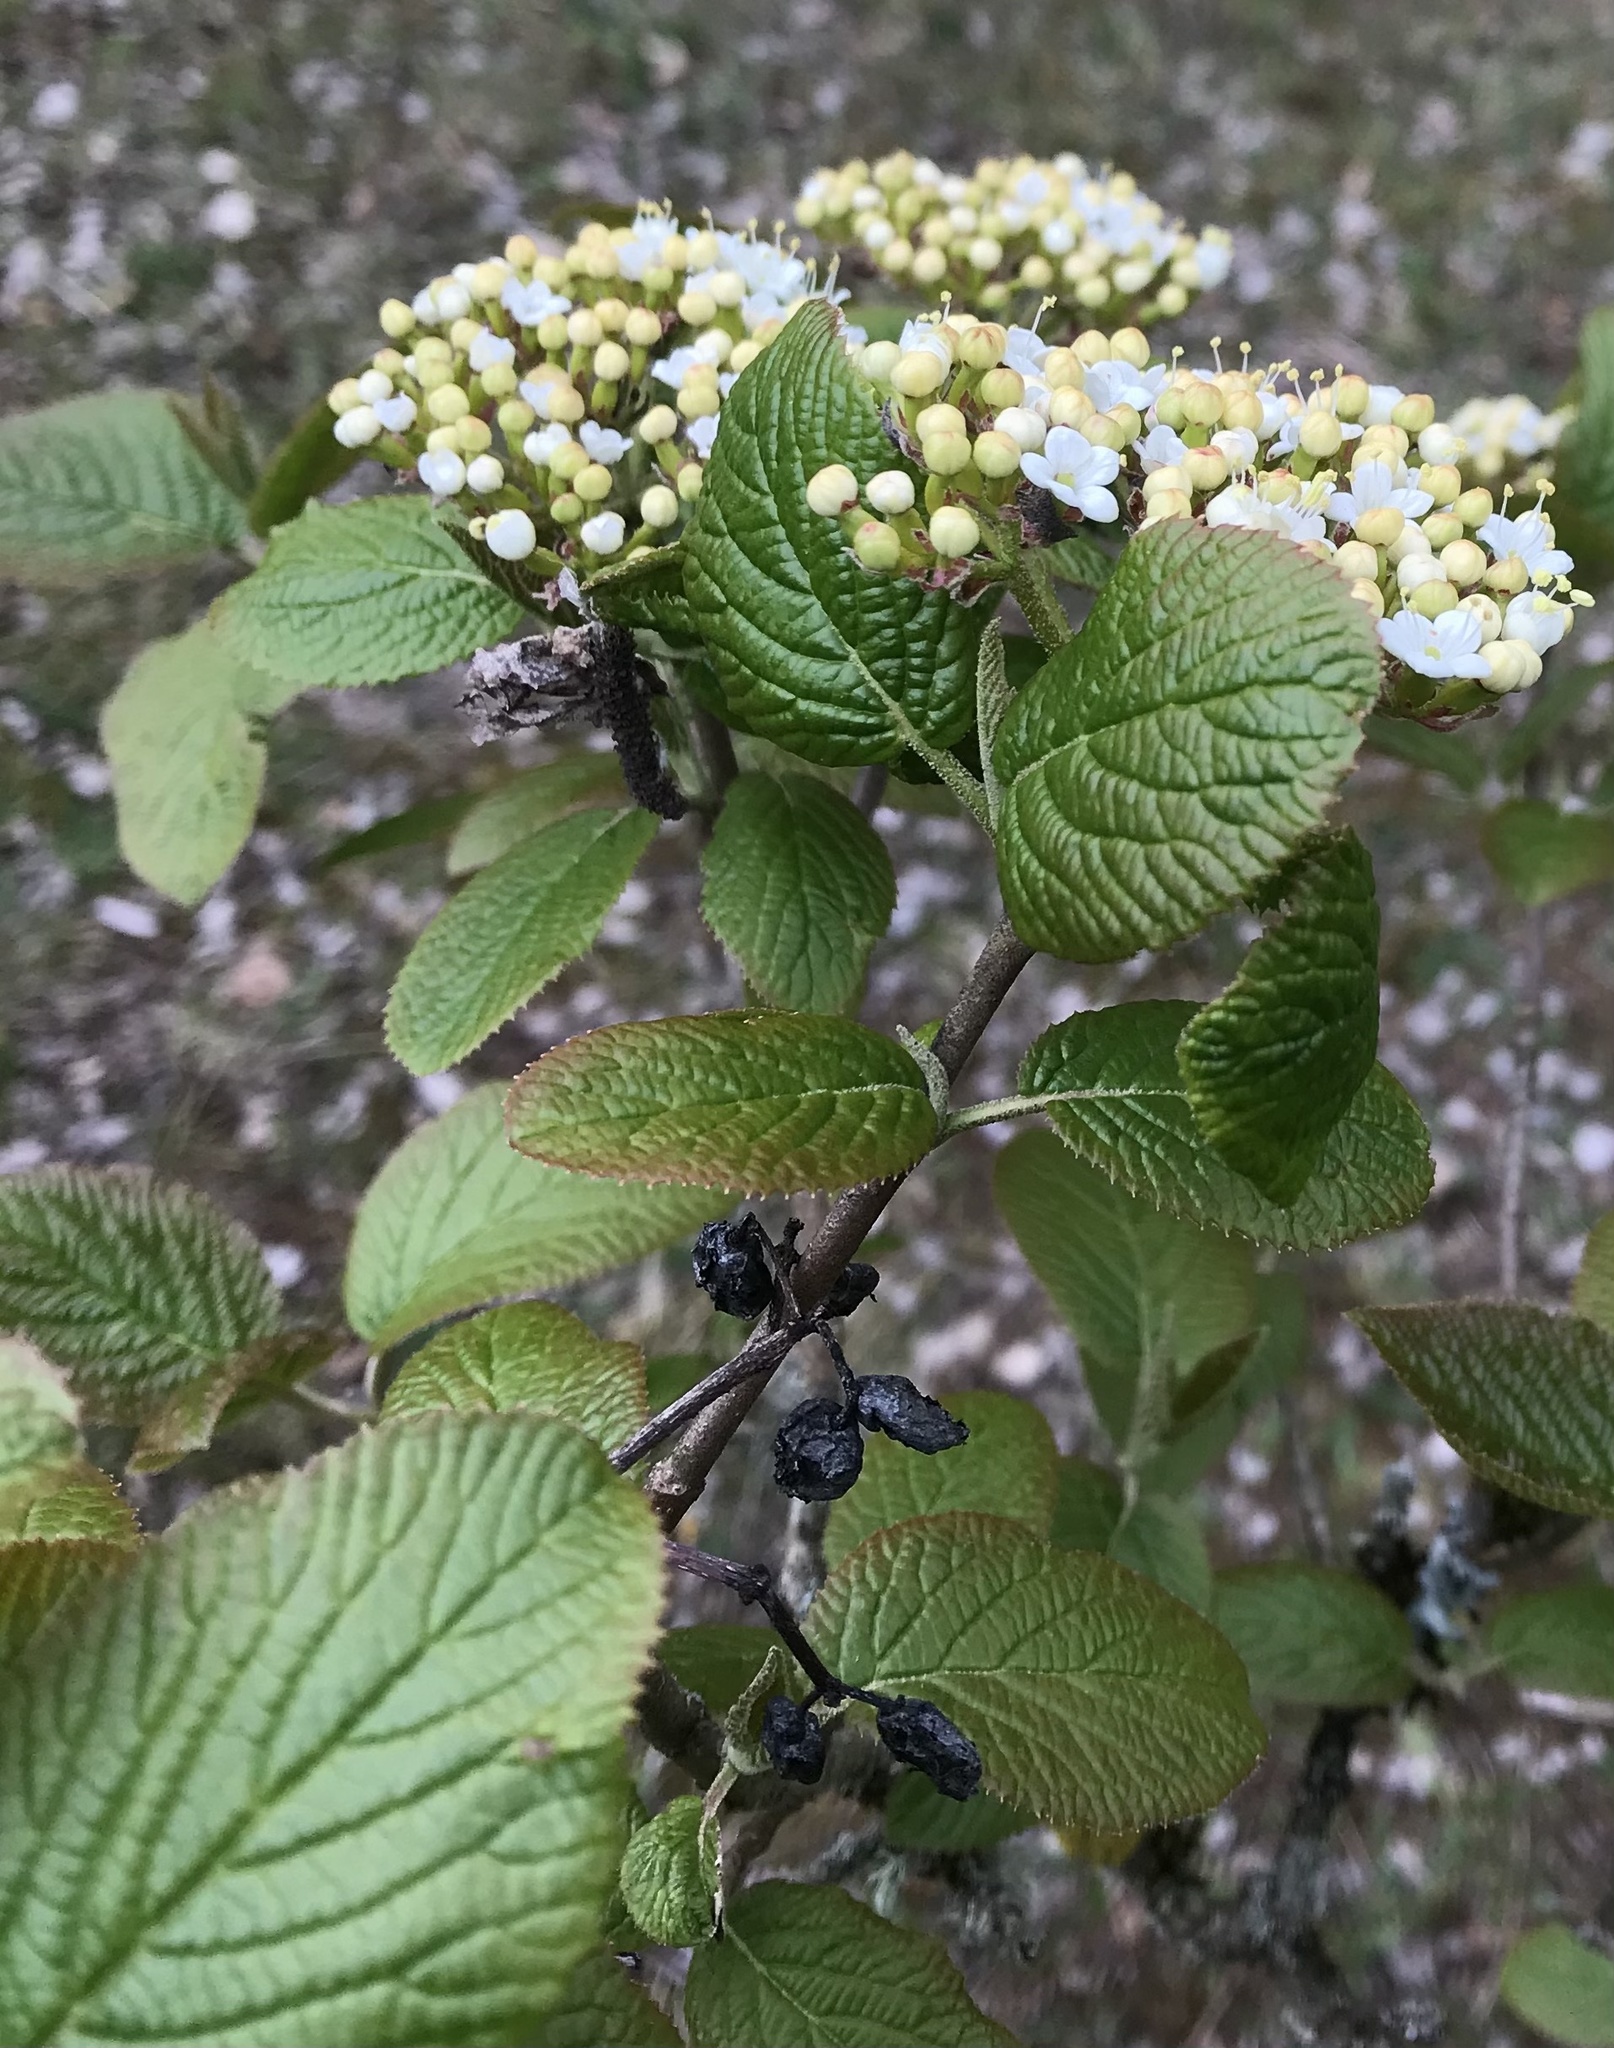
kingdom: Plantae
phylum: Tracheophyta
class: Magnoliopsida
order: Dipsacales
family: Viburnaceae
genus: Viburnum
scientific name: Viburnum lantana
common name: Wayfaring tree
